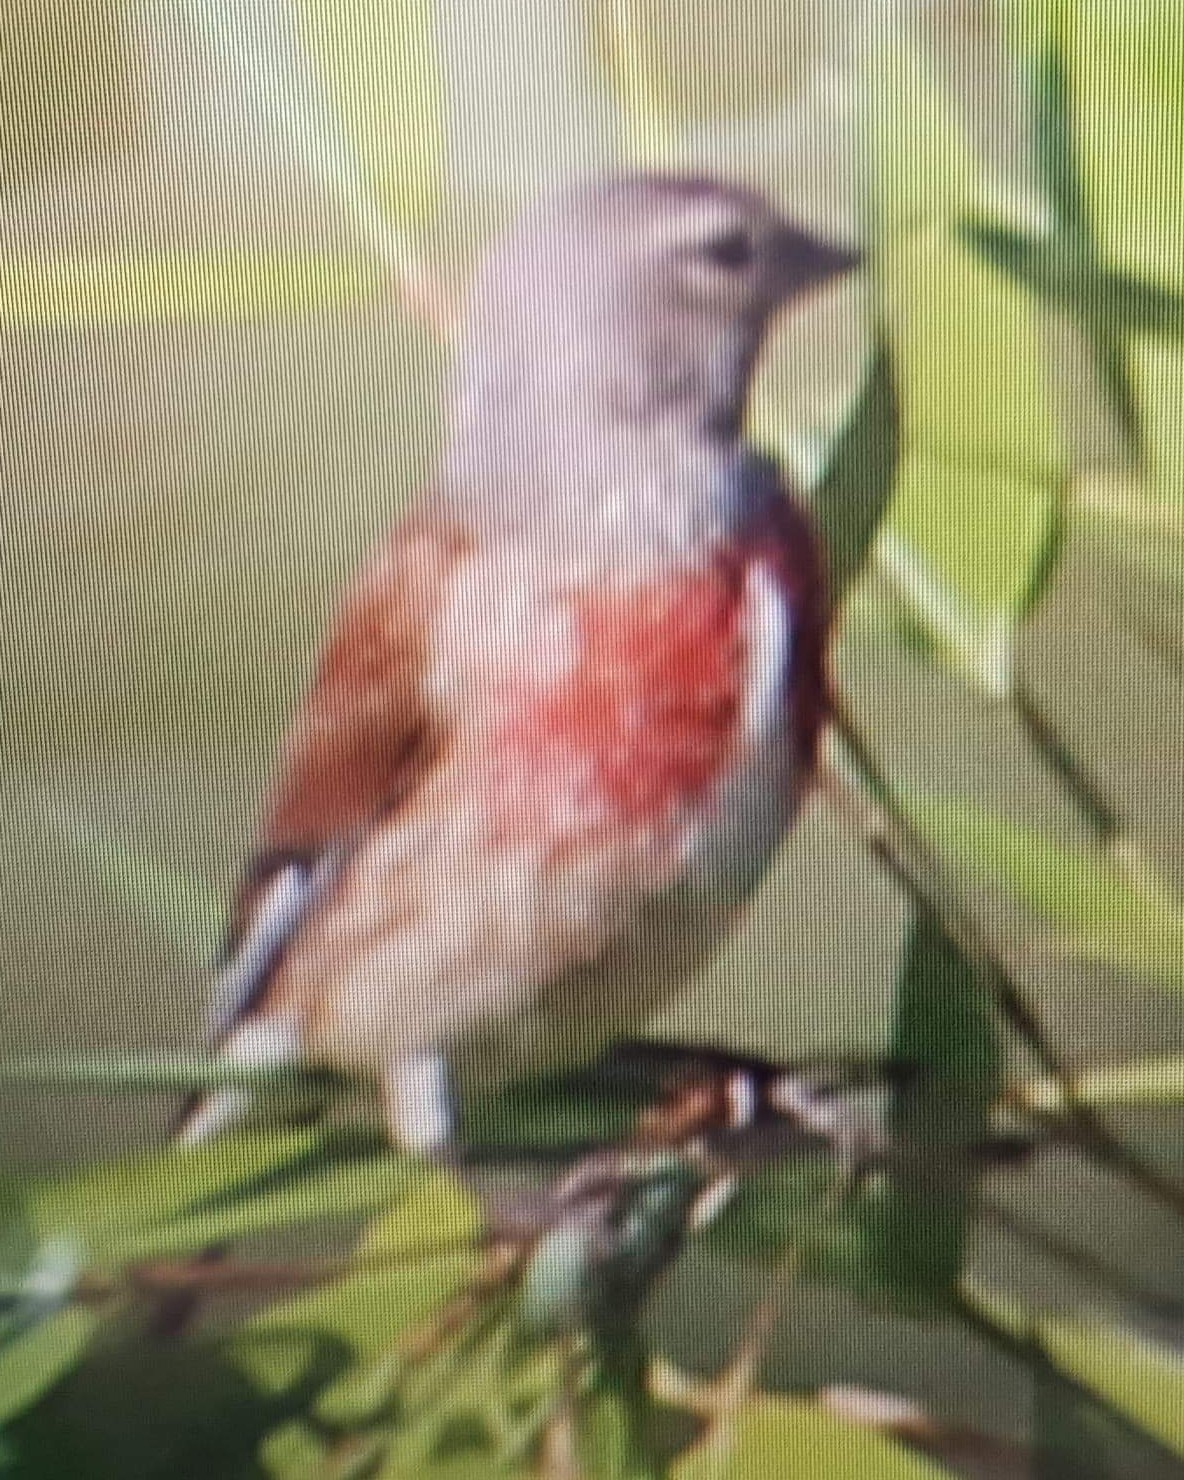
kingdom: Animalia
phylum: Chordata
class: Aves
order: Passeriformes
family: Fringillidae
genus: Linaria
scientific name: Linaria cannabina
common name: Common linnet
